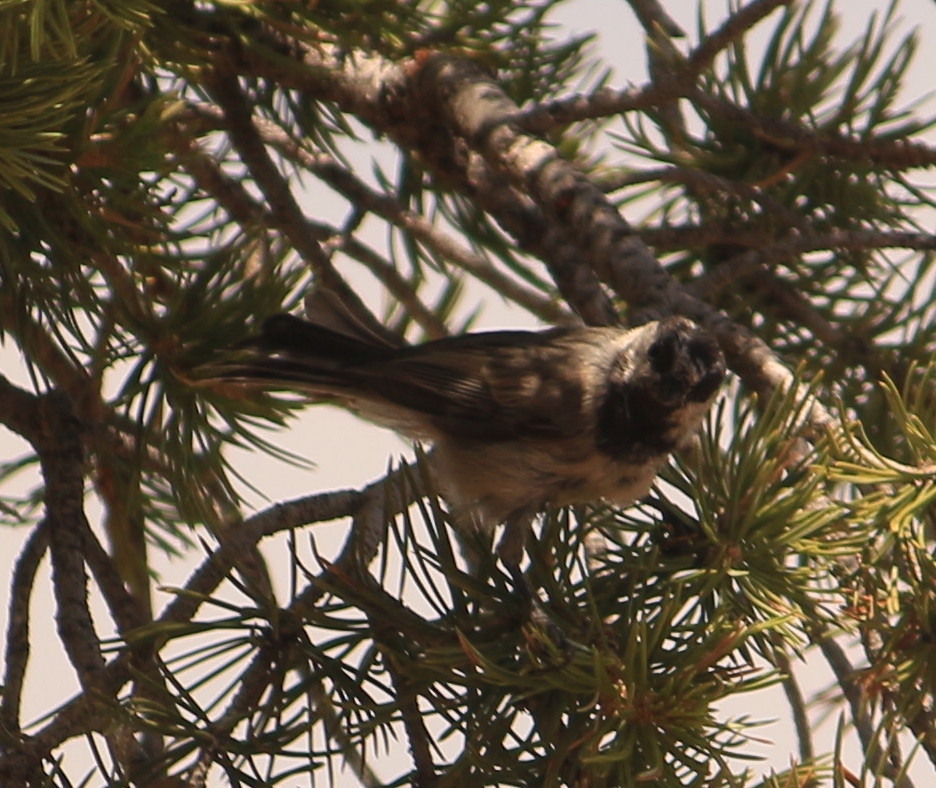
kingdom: Animalia
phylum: Chordata
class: Aves
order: Passeriformes
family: Paridae
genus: Poecile
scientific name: Poecile gambeli
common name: Mountain chickadee
